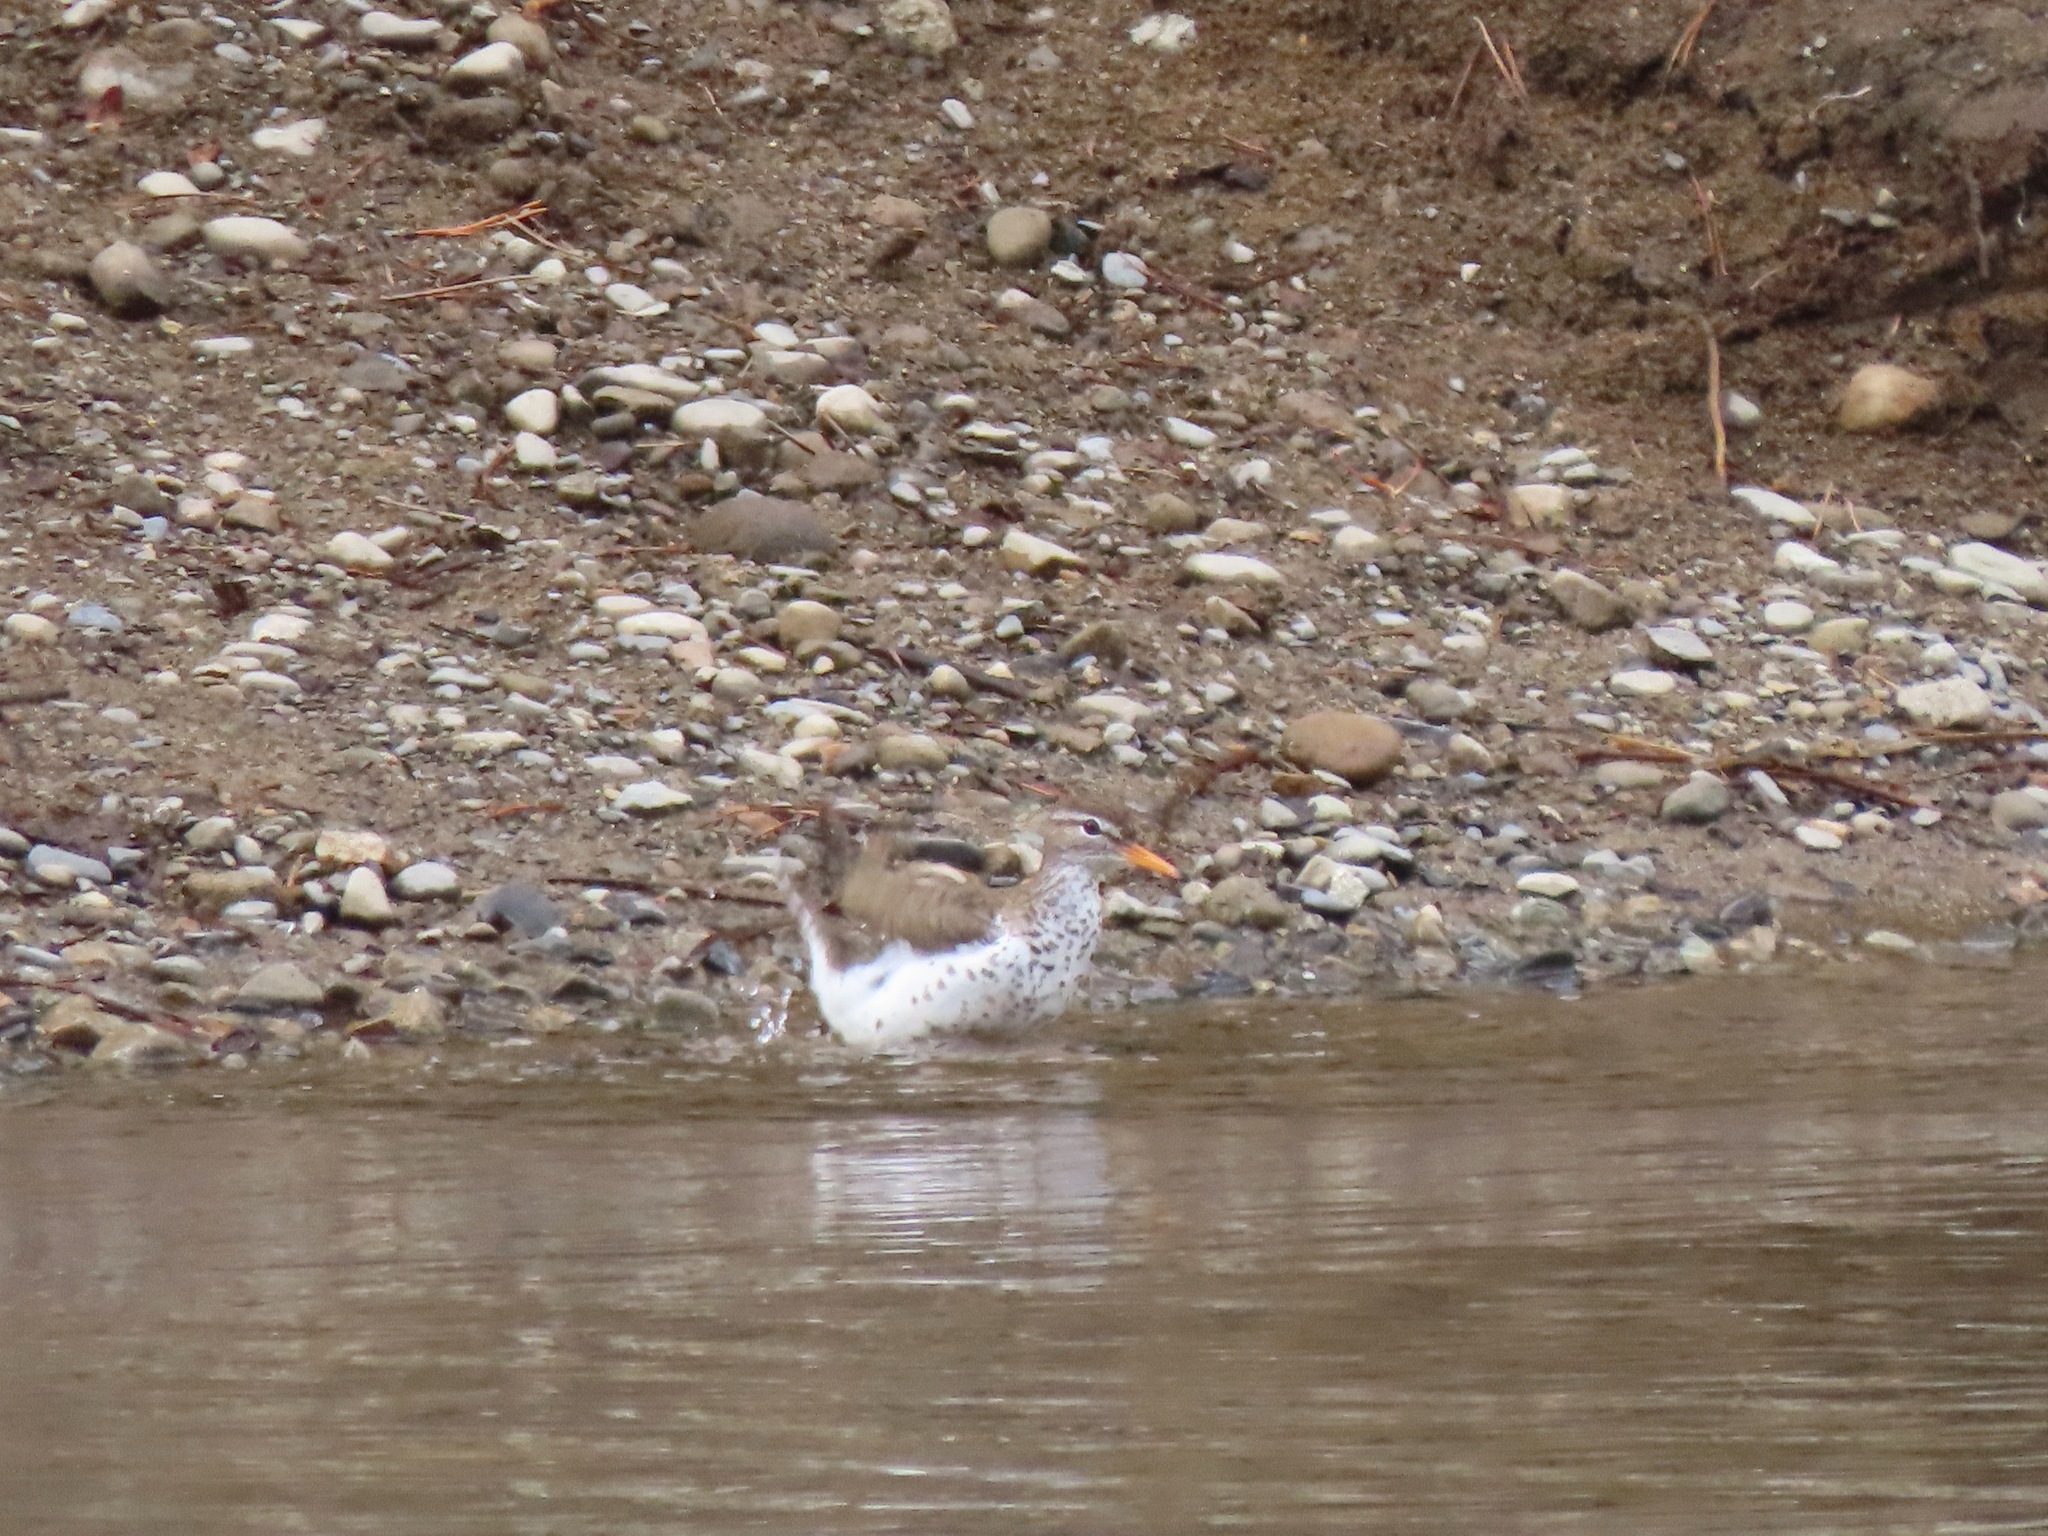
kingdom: Animalia
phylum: Chordata
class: Aves
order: Charadriiformes
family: Scolopacidae
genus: Actitis
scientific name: Actitis macularius
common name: Spotted sandpiper
